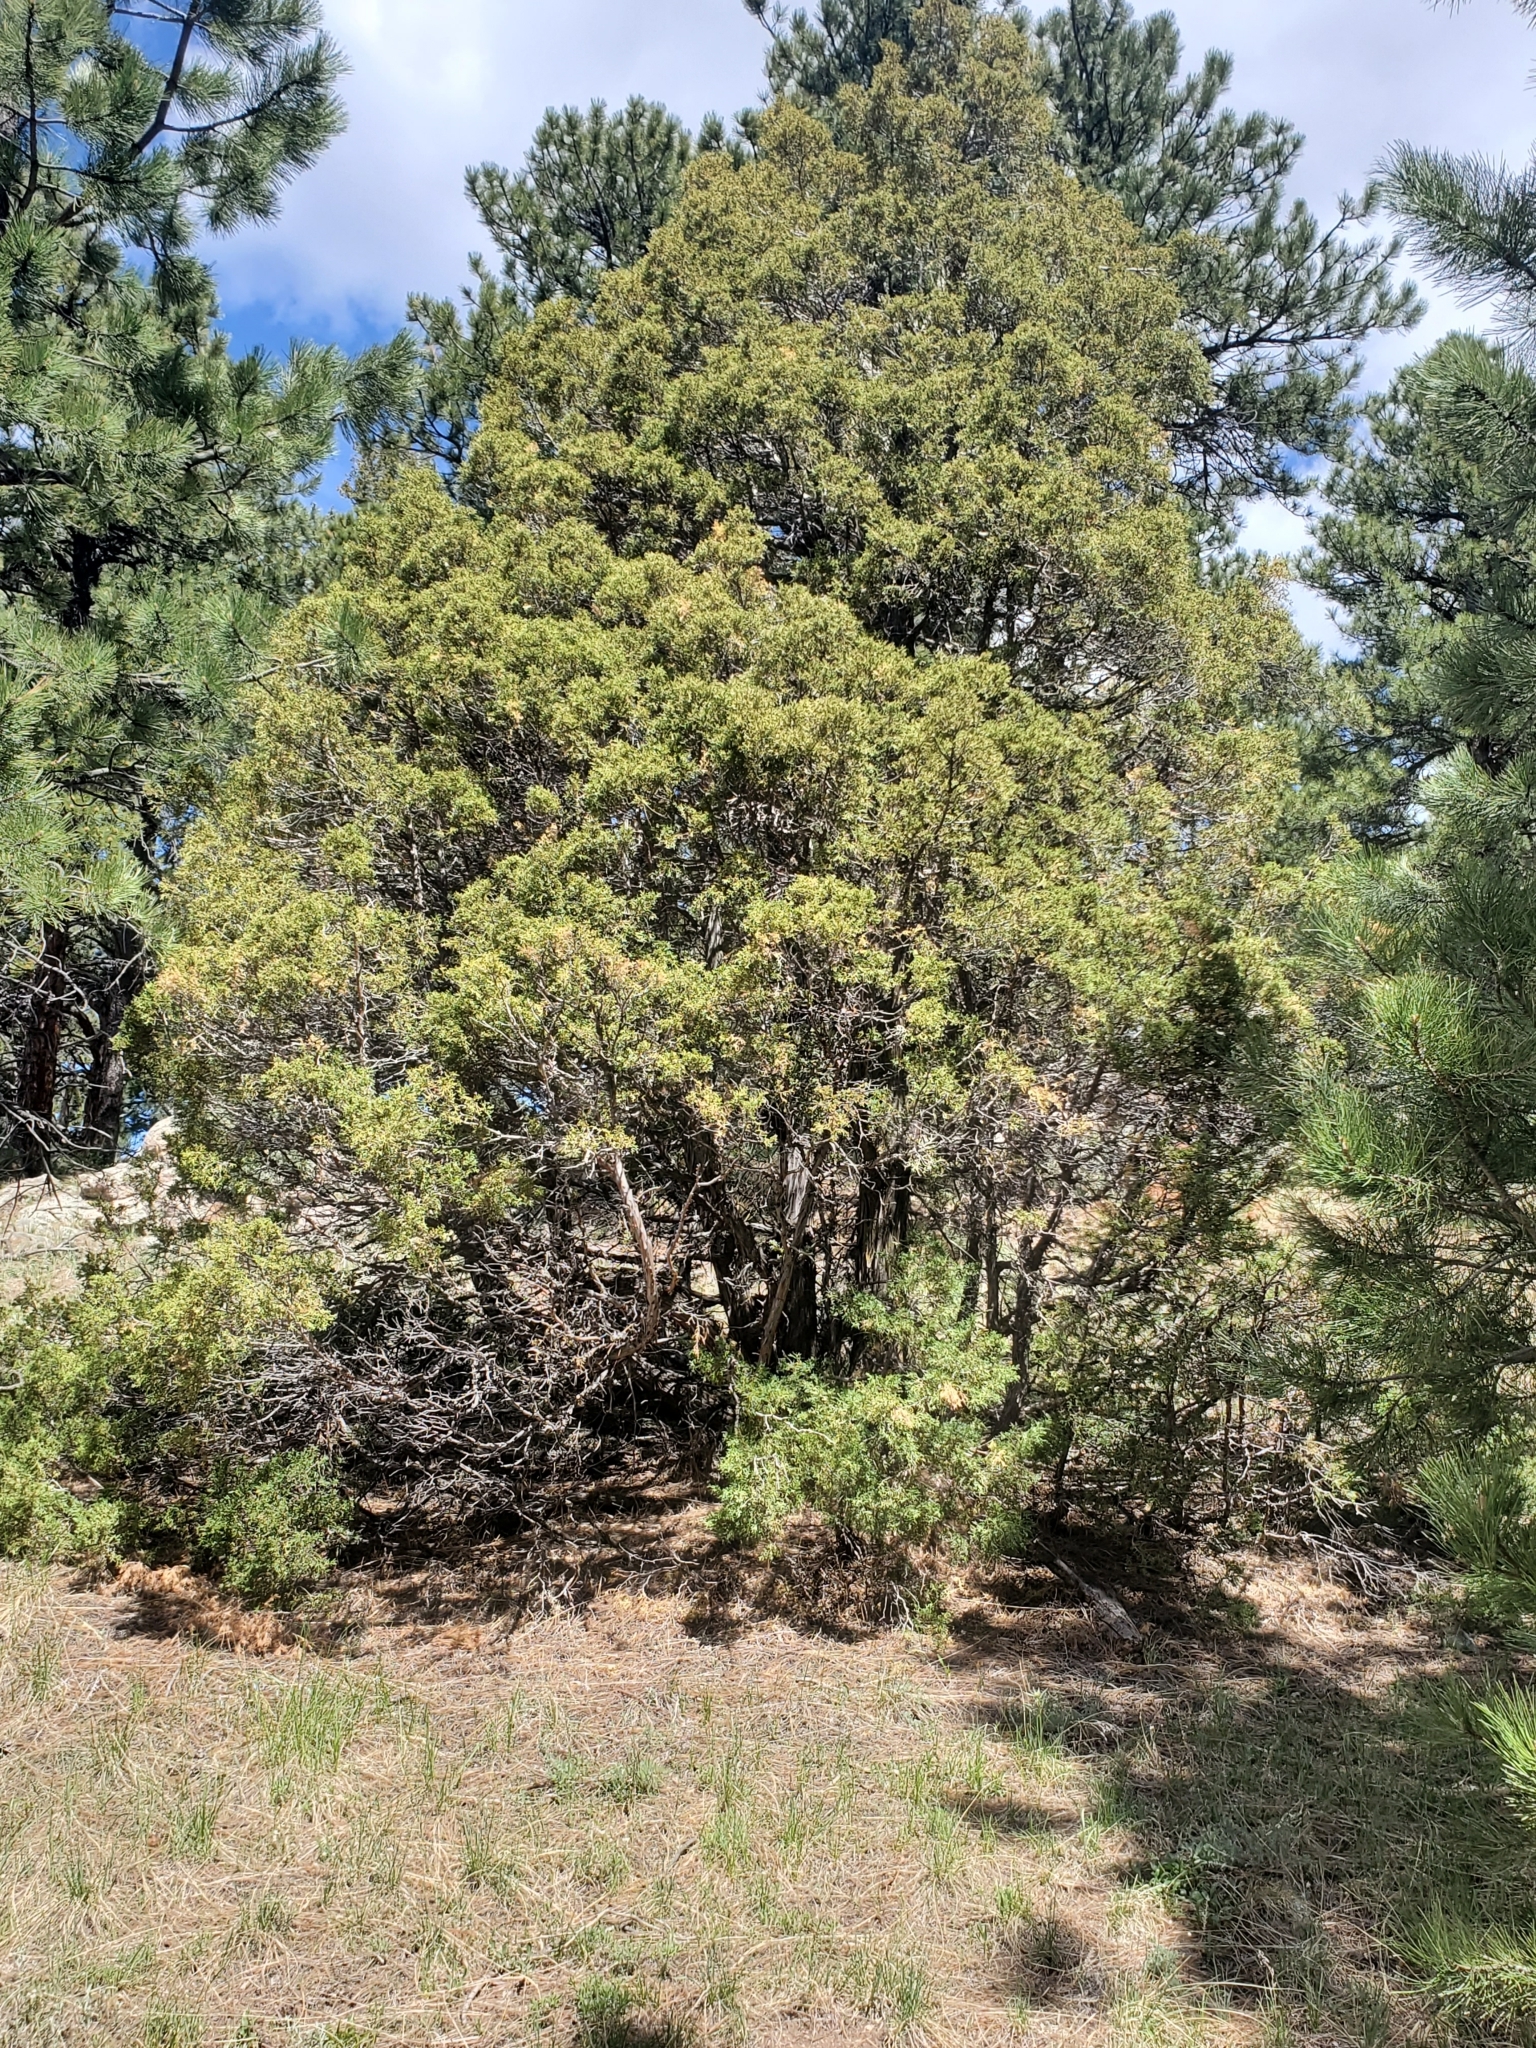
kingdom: Plantae
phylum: Tracheophyta
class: Pinopsida
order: Pinales
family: Cupressaceae
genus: Juniperus
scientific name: Juniperus scopulorum
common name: Rocky mountain juniper
